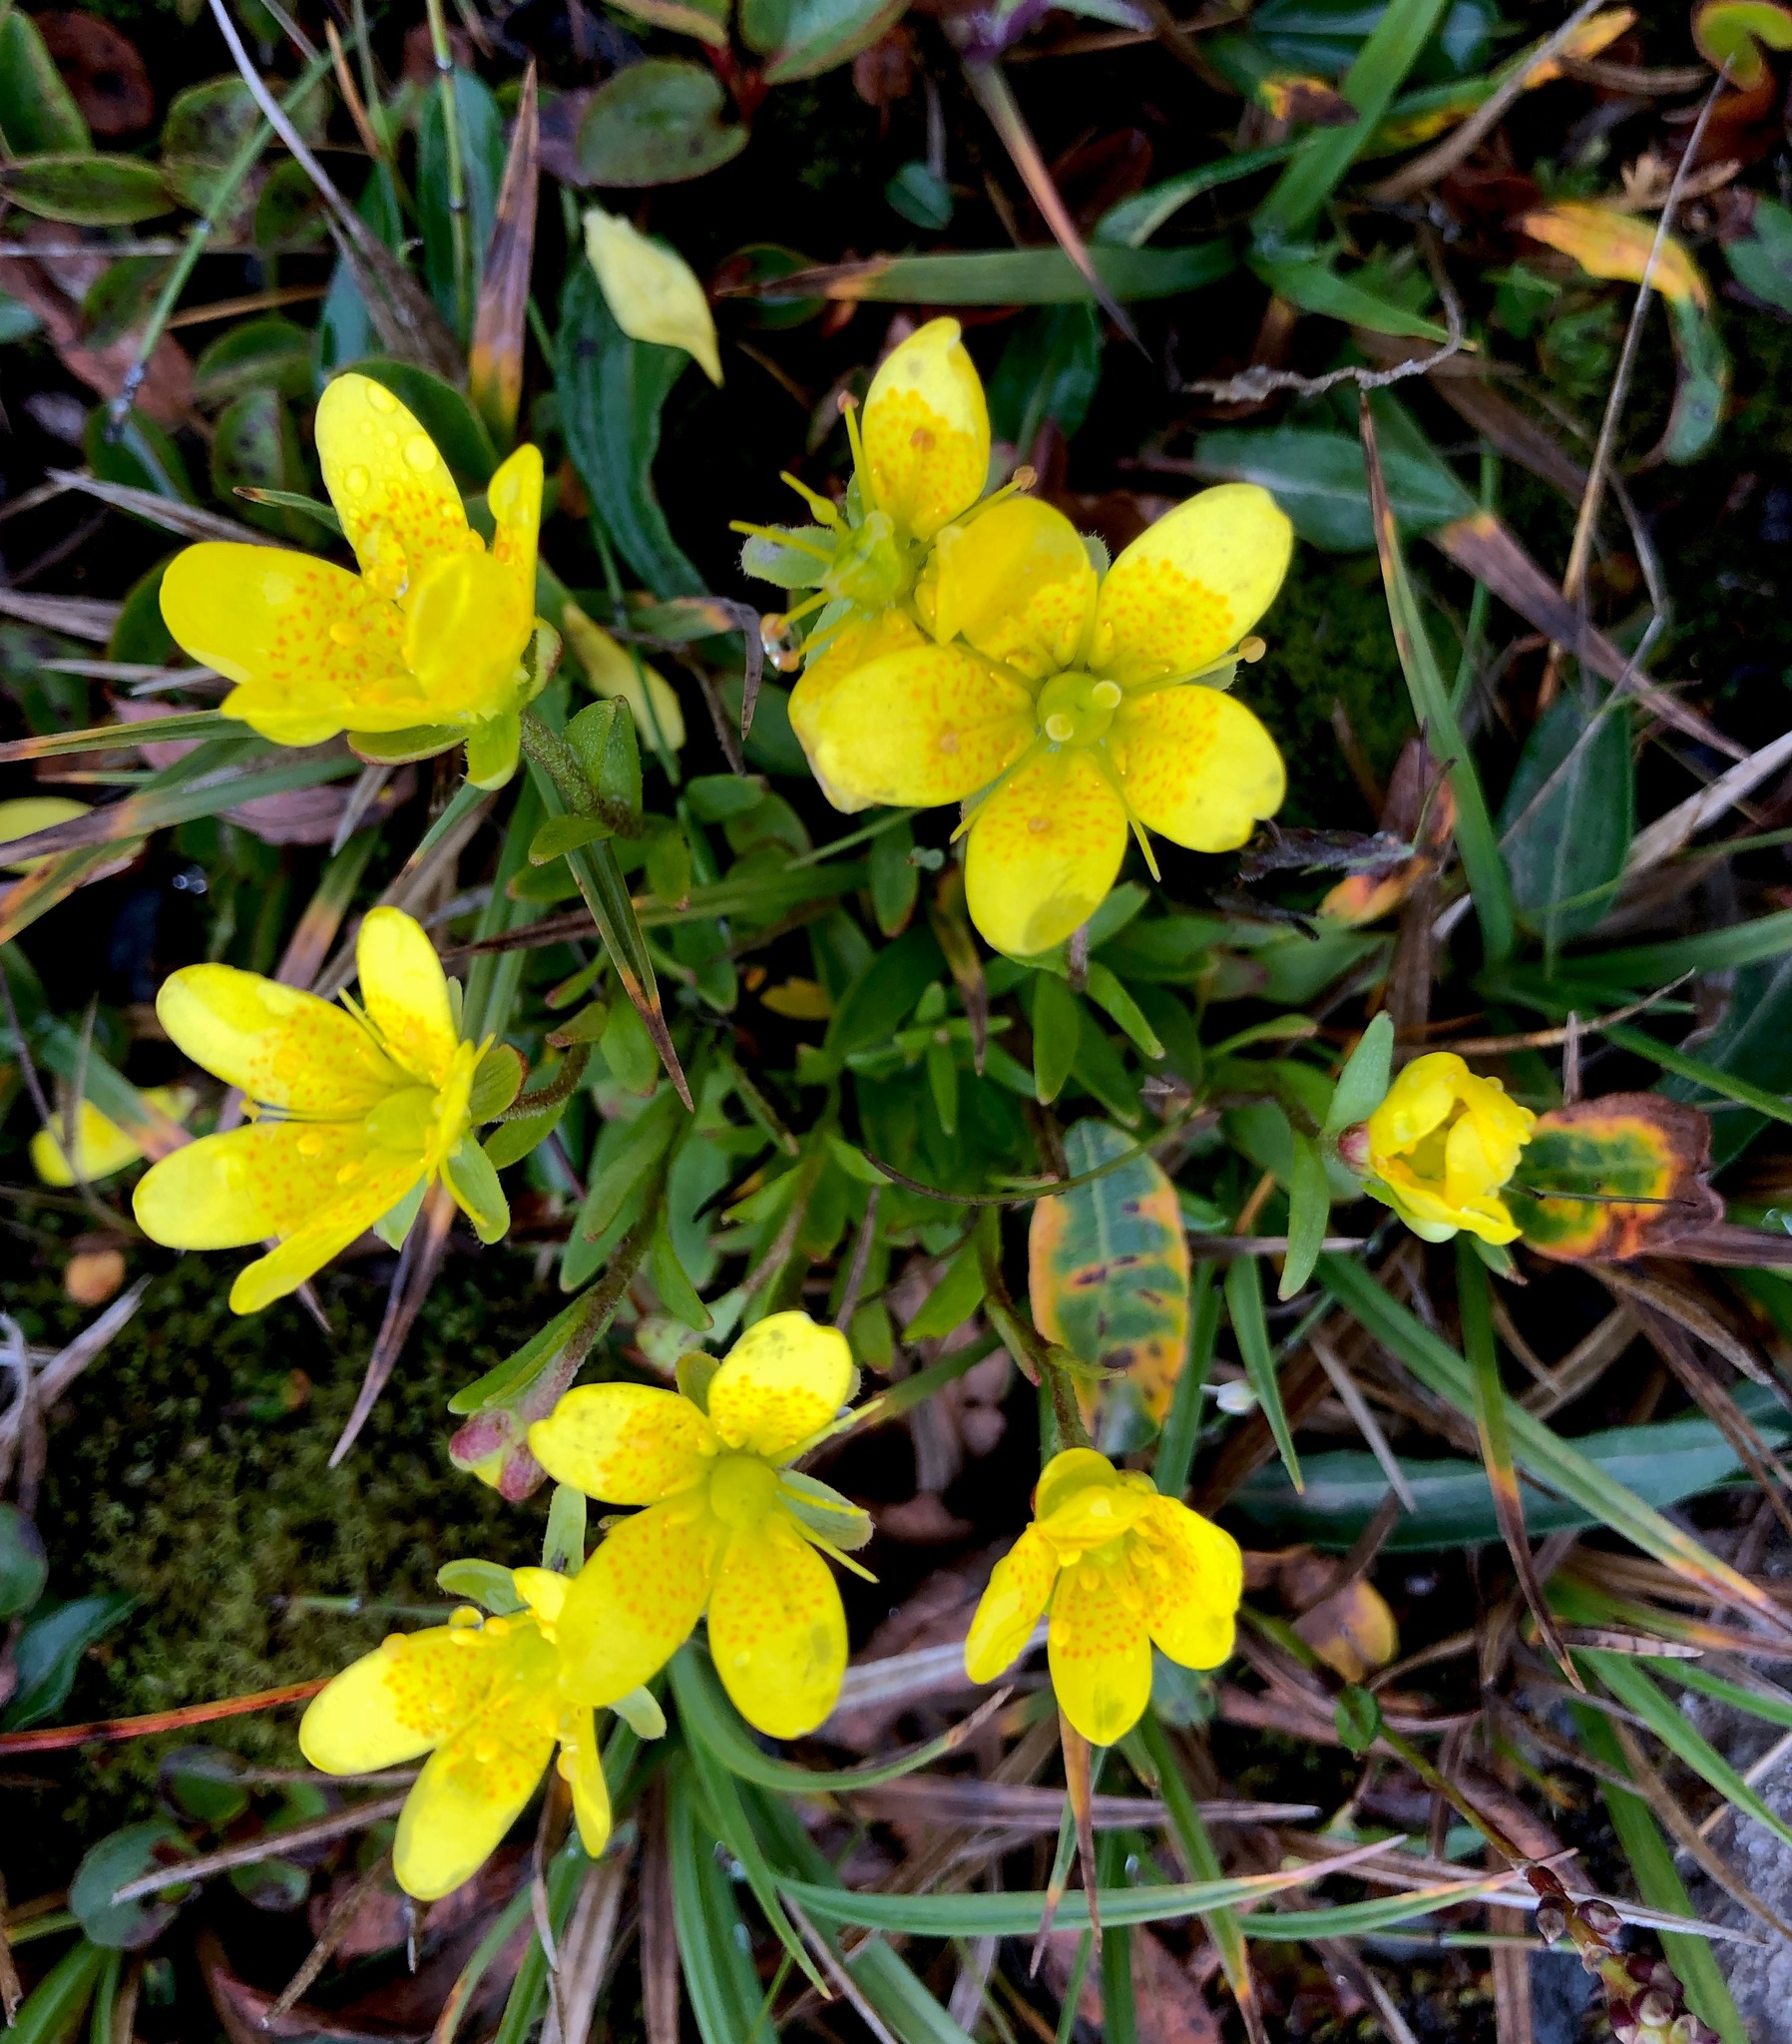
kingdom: Plantae
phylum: Tracheophyta
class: Magnoliopsida
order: Saxifragales
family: Saxifragaceae
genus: Saxifraga
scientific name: Saxifraga hirculus
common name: Yellow marsh saxifrage
